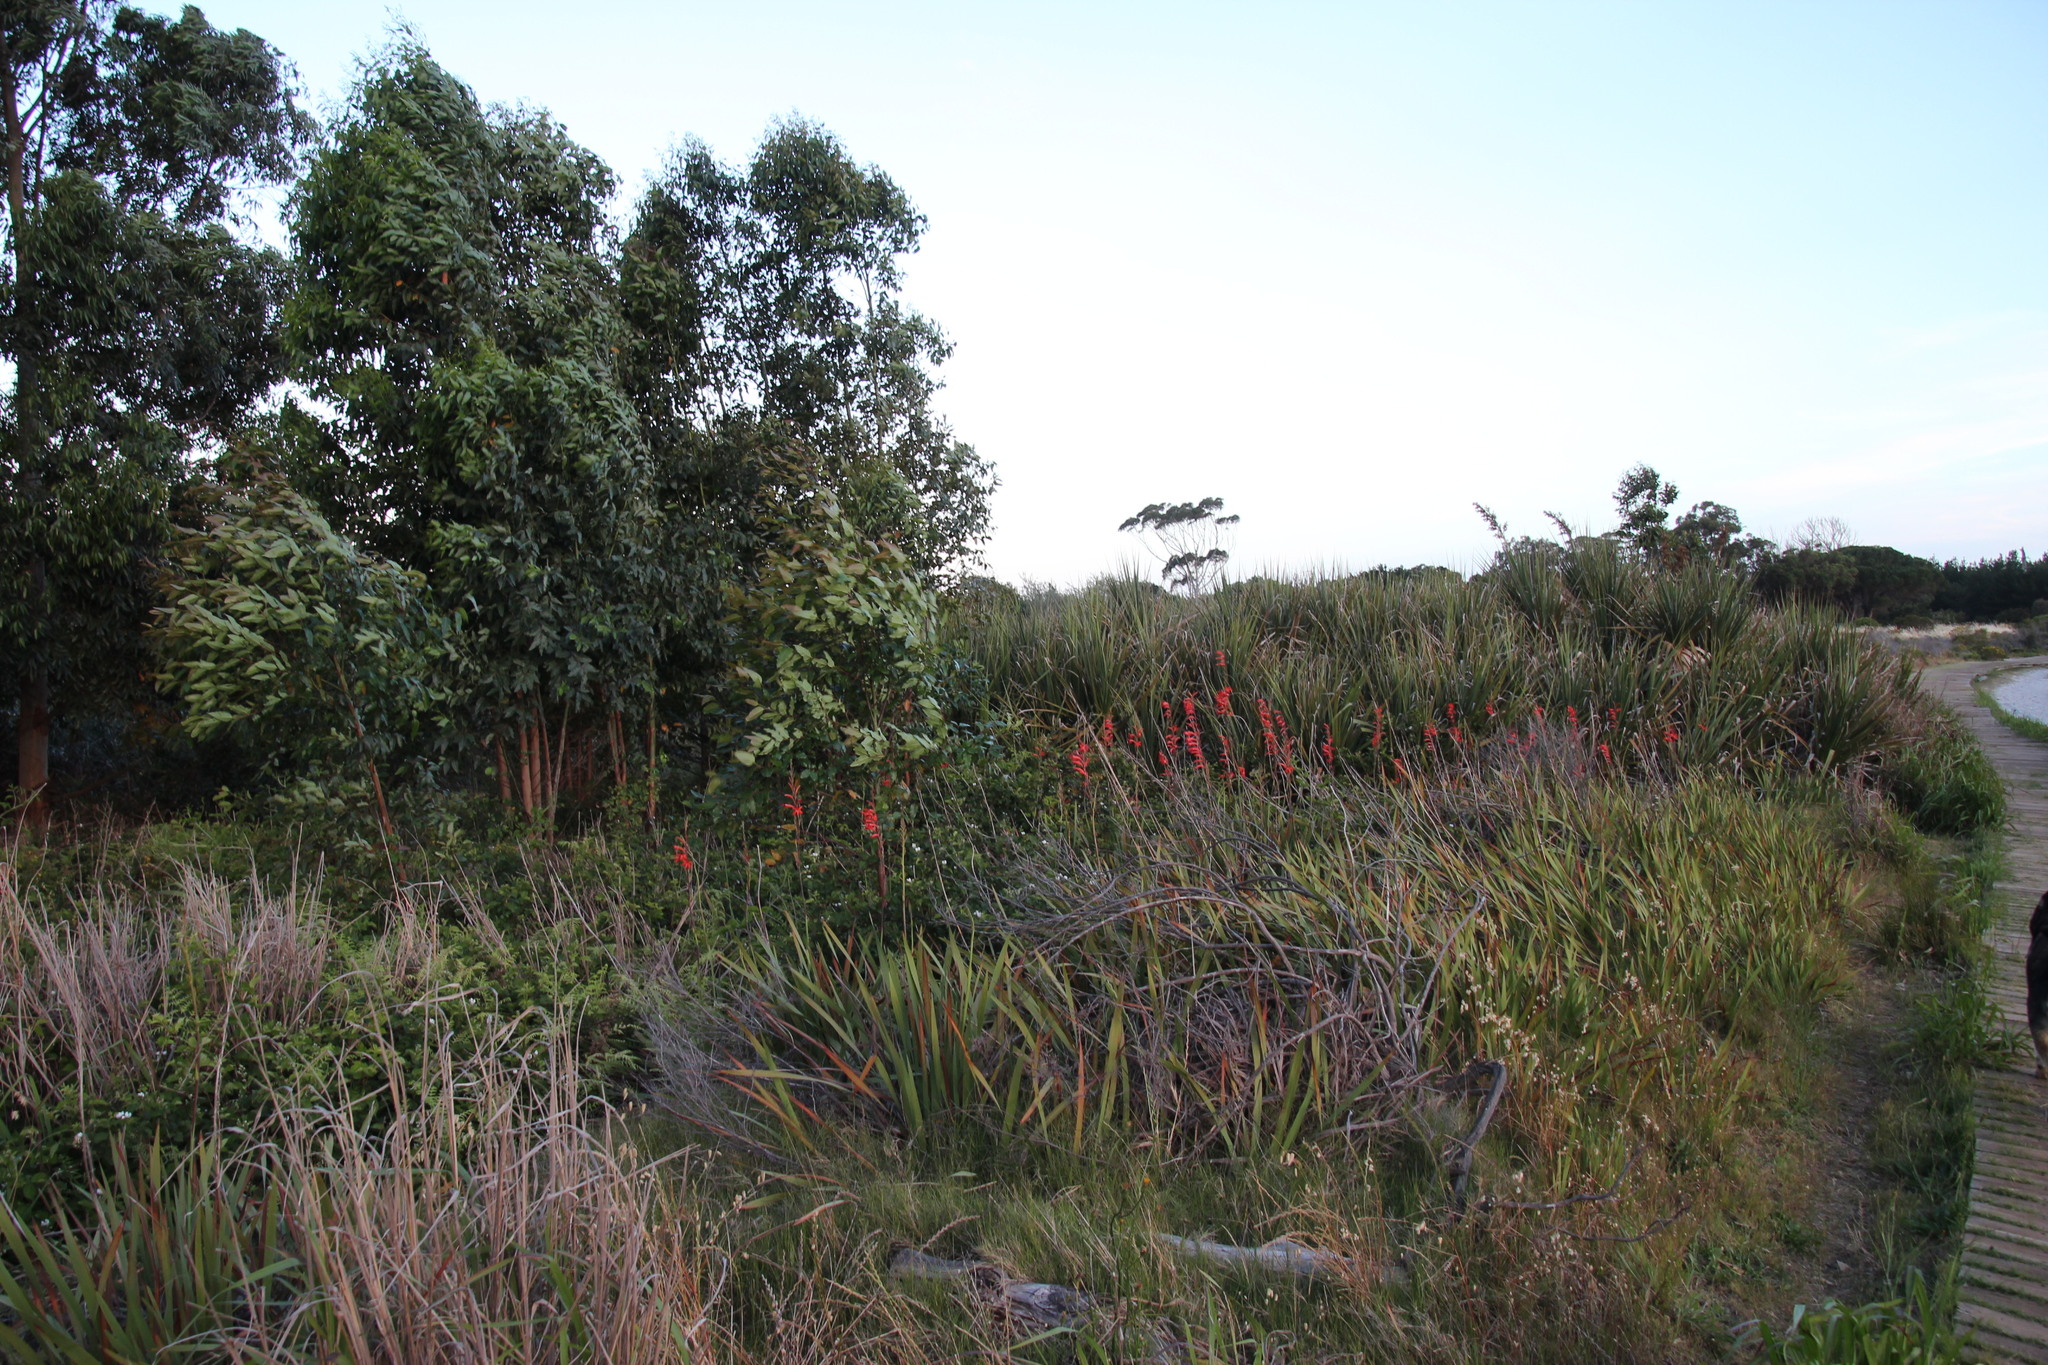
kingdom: Plantae
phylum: Tracheophyta
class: Liliopsida
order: Asparagales
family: Iridaceae
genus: Watsonia
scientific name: Watsonia angusta
